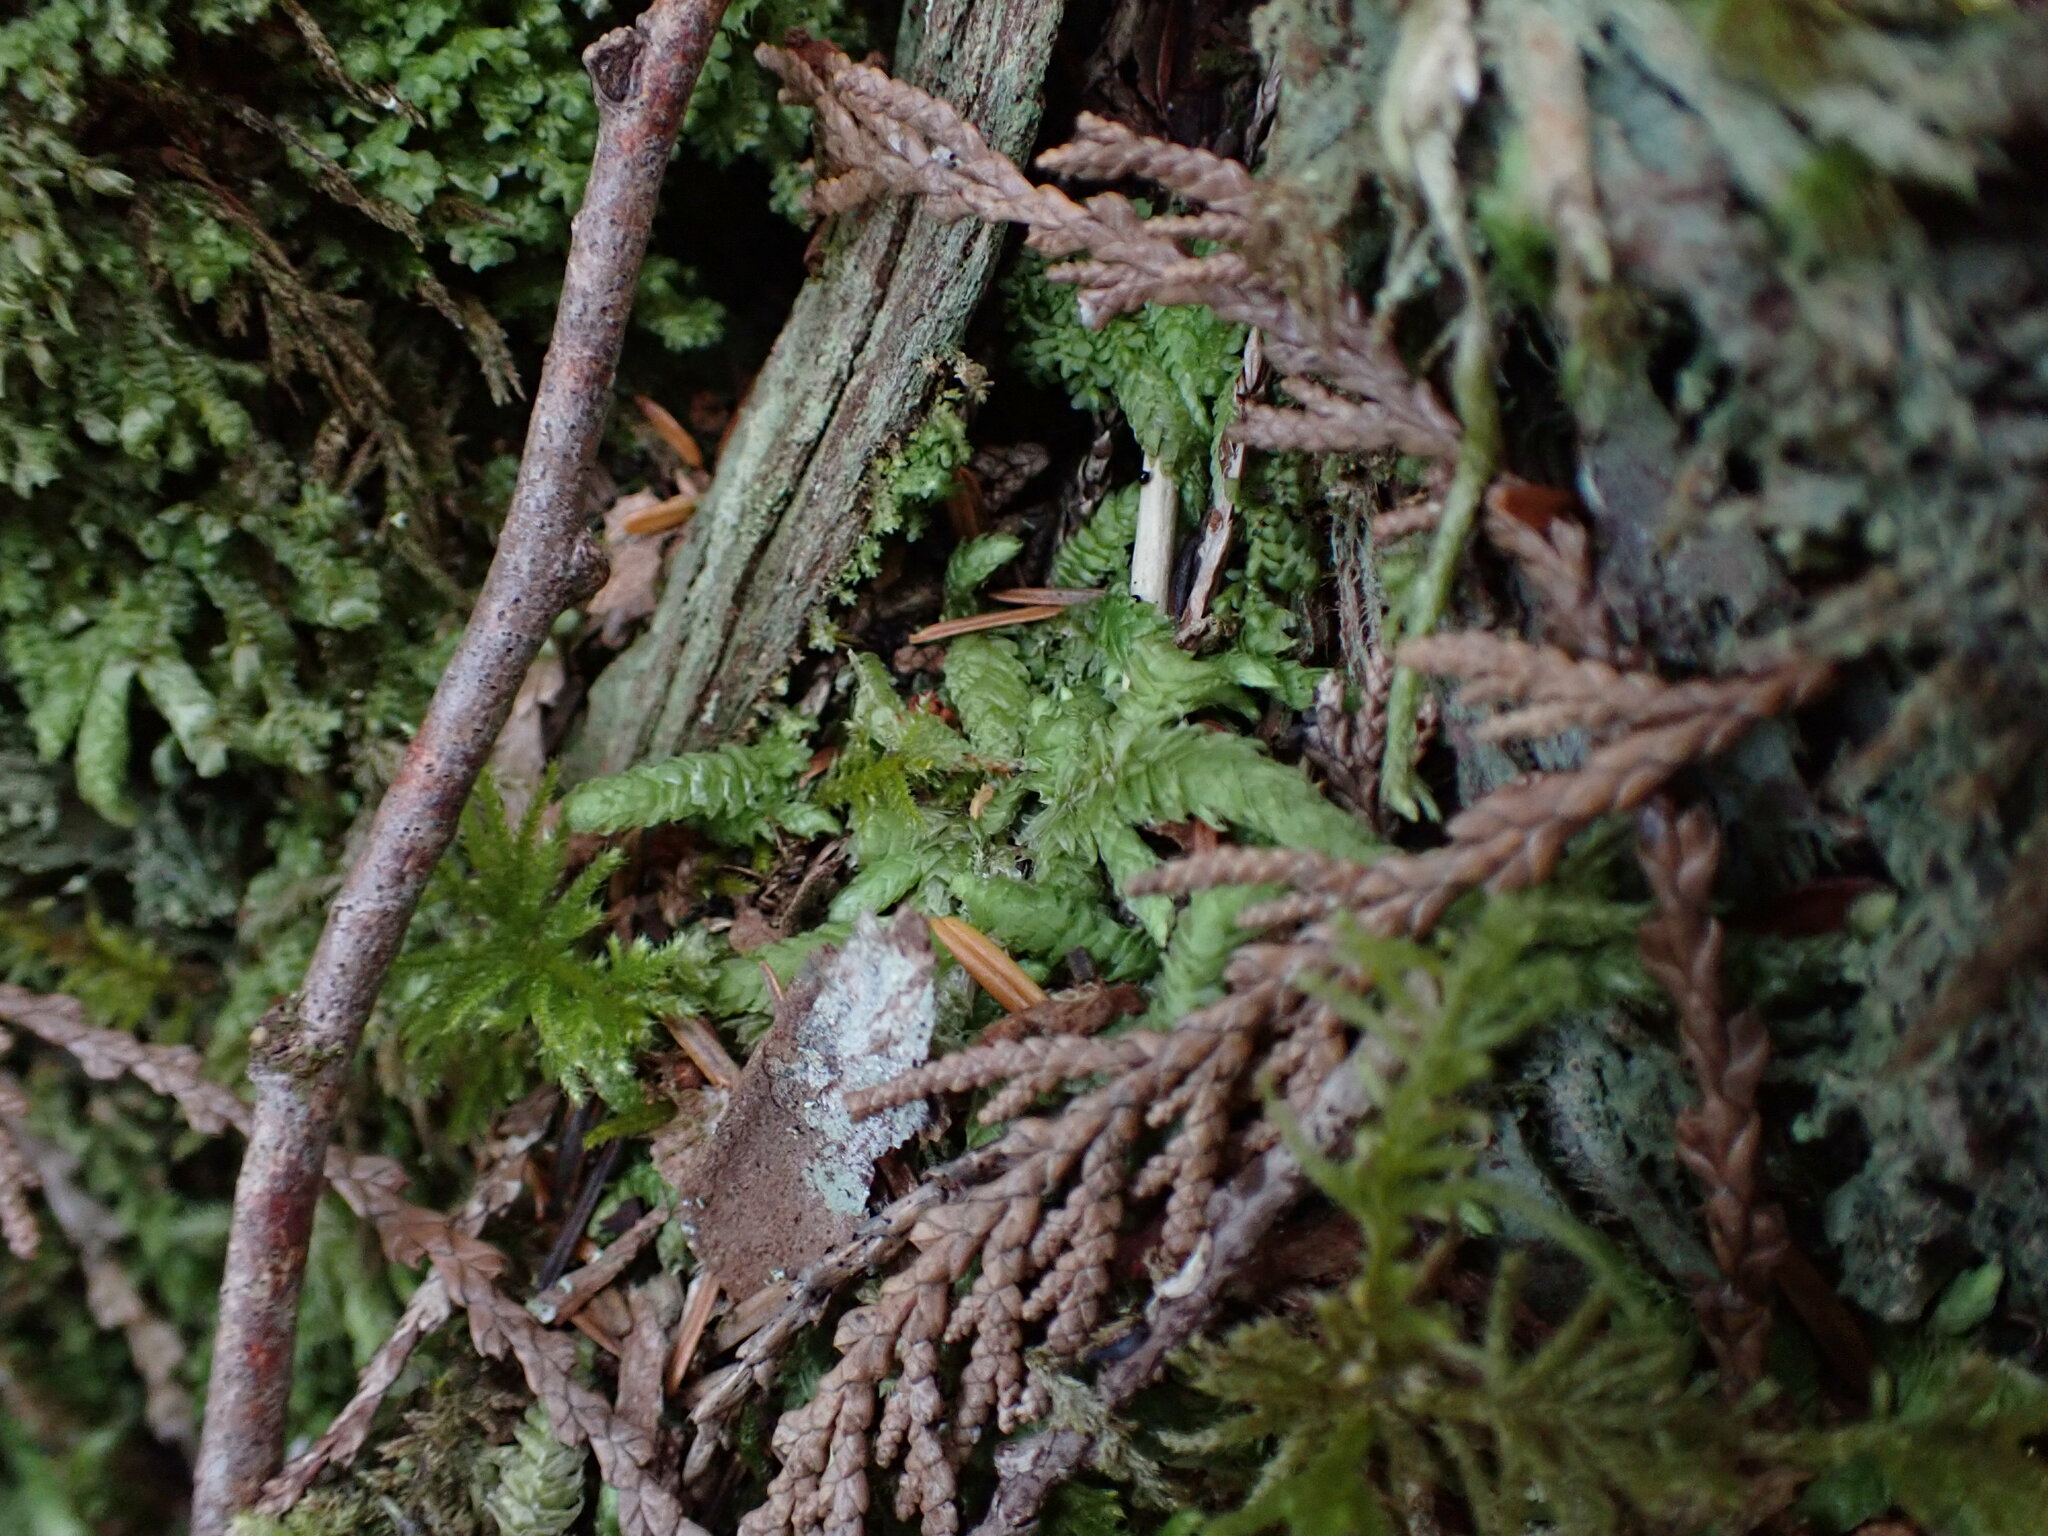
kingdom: Plantae
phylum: Bryophyta
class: Bryopsida
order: Hypnales
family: Plagiotheciaceae
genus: Plagiothecium
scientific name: Plagiothecium undulatum
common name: Waved silk-moss
